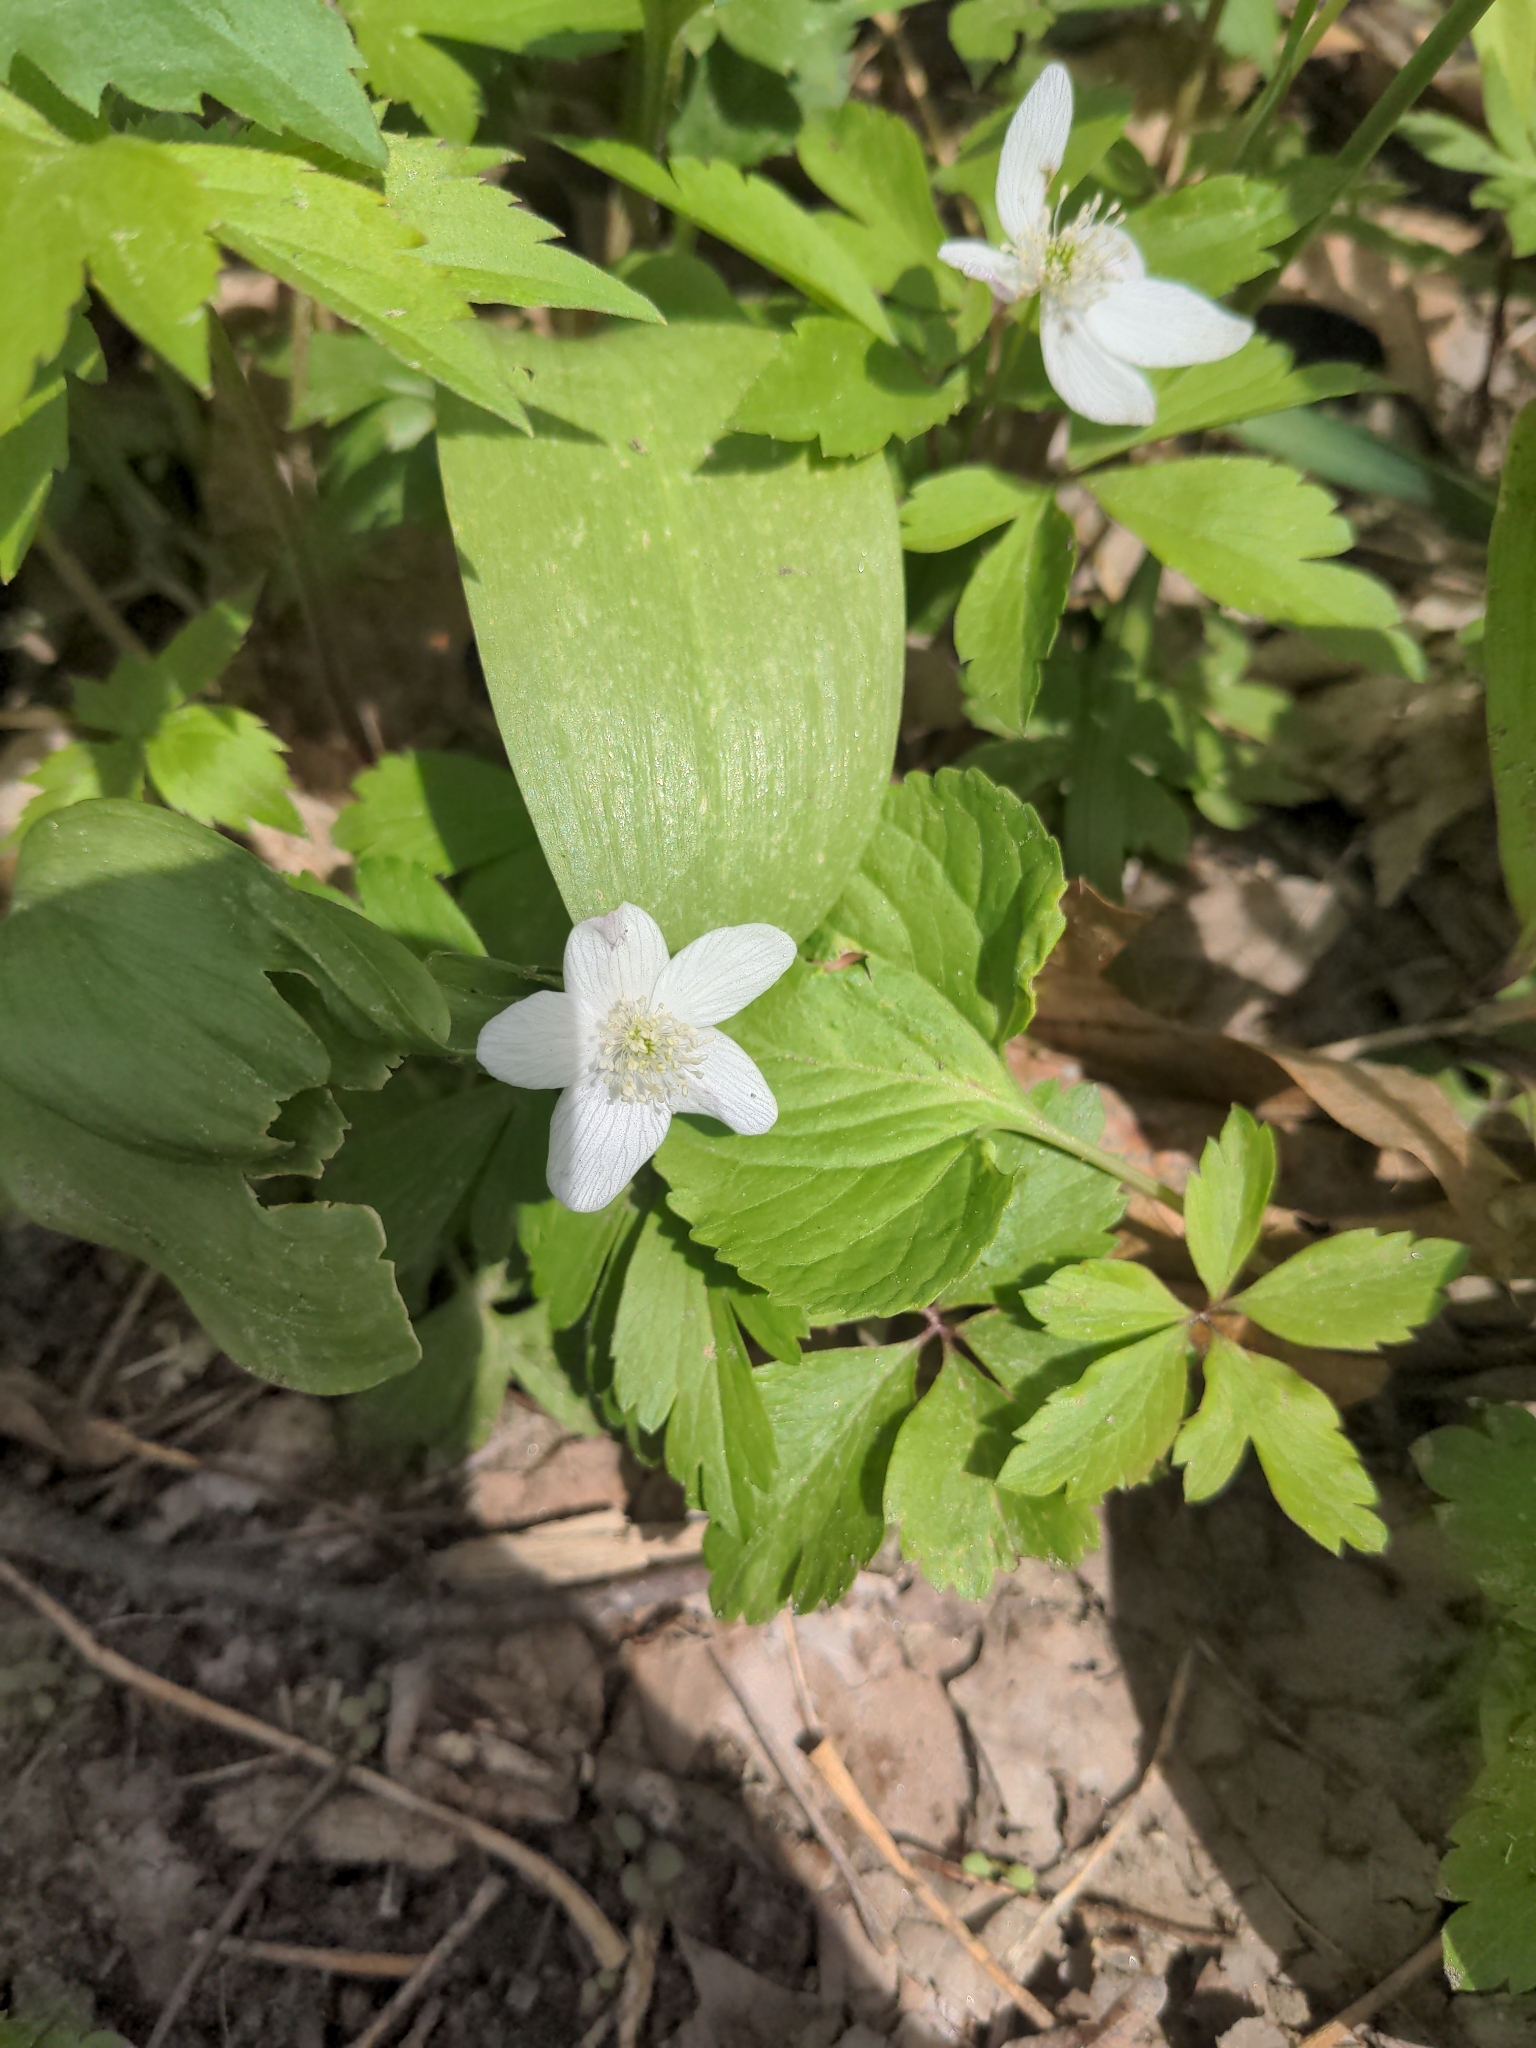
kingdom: Plantae
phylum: Tracheophyta
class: Magnoliopsida
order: Ranunculales
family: Ranunculaceae
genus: Anemone
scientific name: Anemone quinquefolia
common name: Wood anemone
